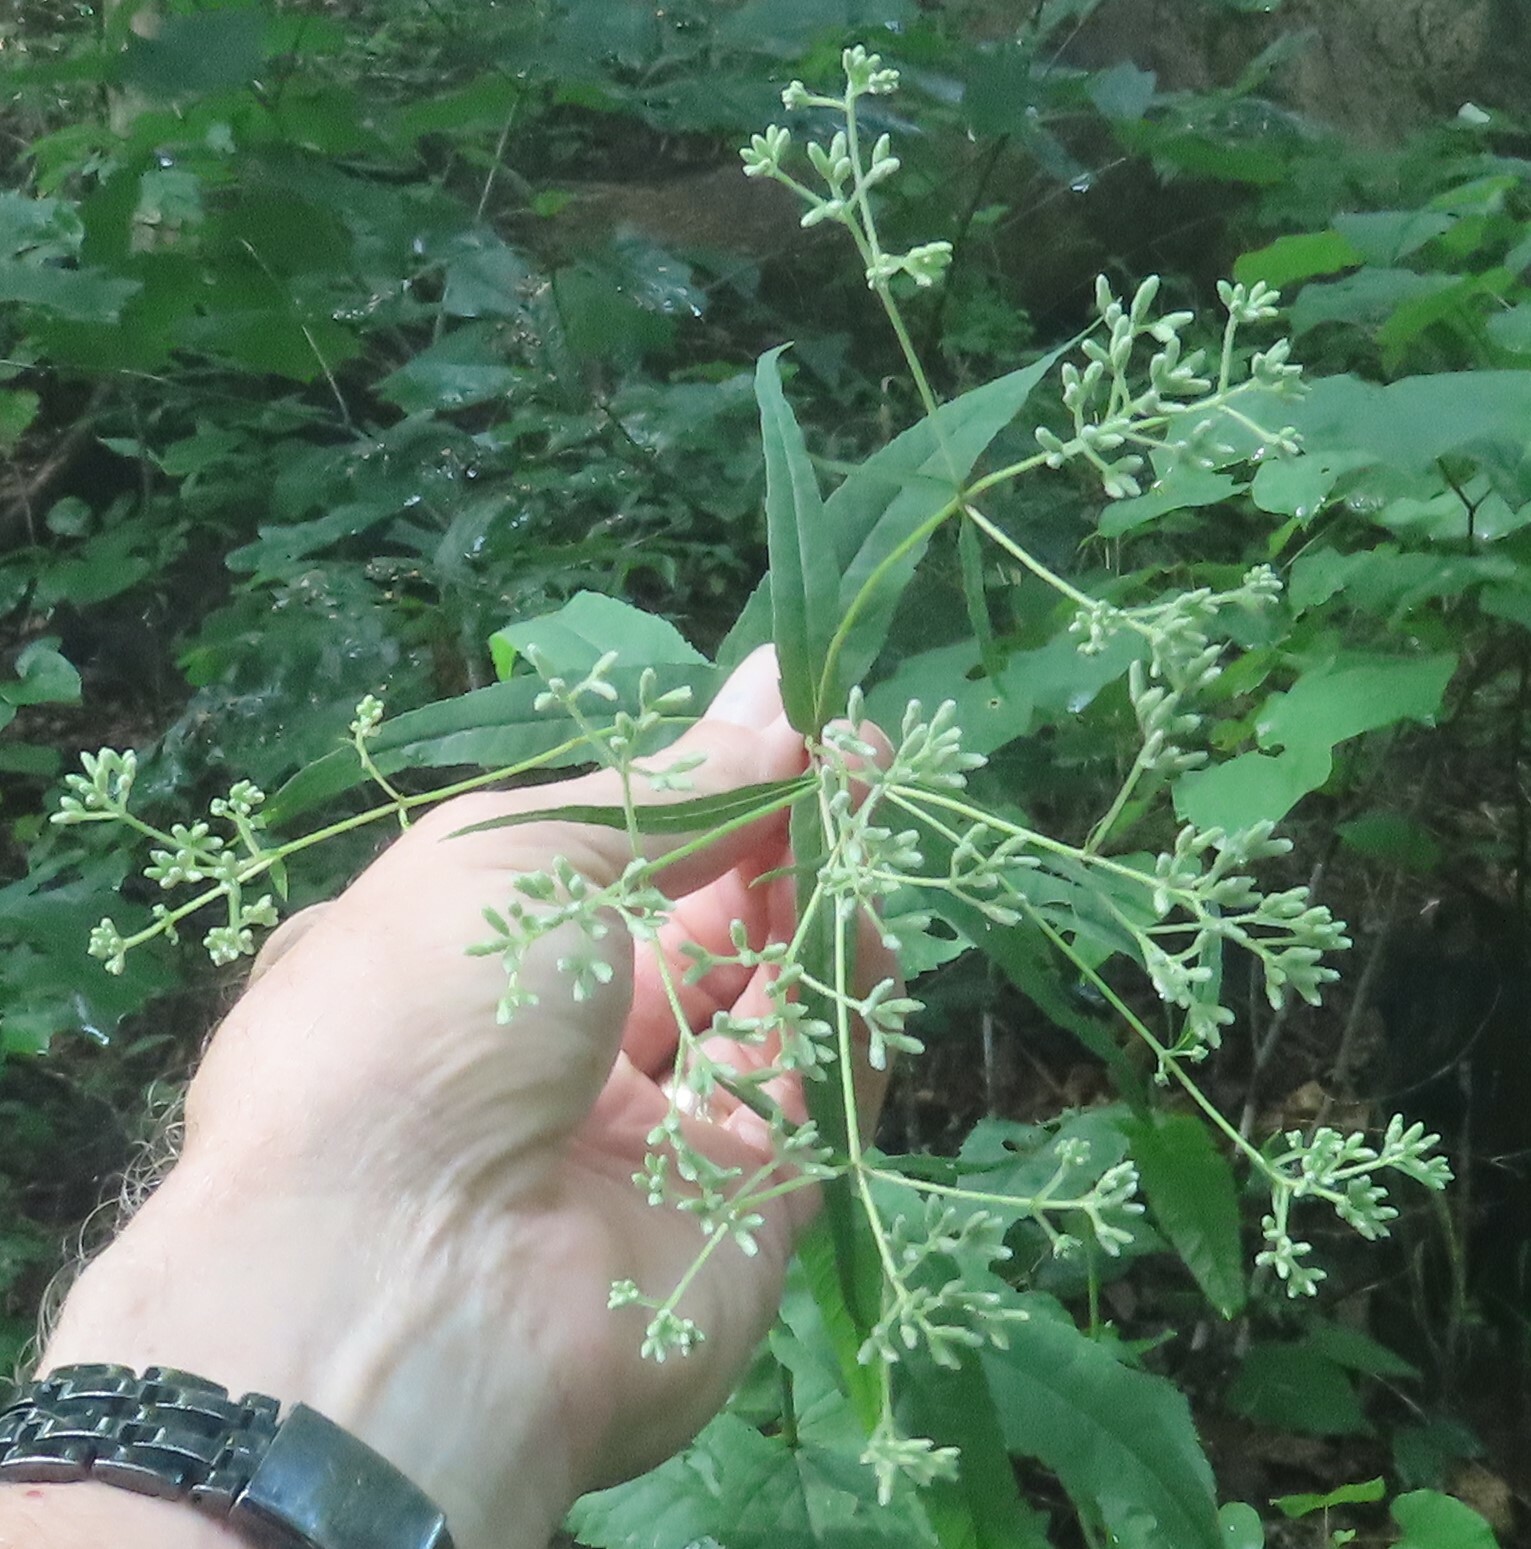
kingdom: Plantae
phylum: Tracheophyta
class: Magnoliopsida
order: Asterales
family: Asteraceae
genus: Eupatorium
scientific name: Eupatorium sessilifolium
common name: Upland boneset
